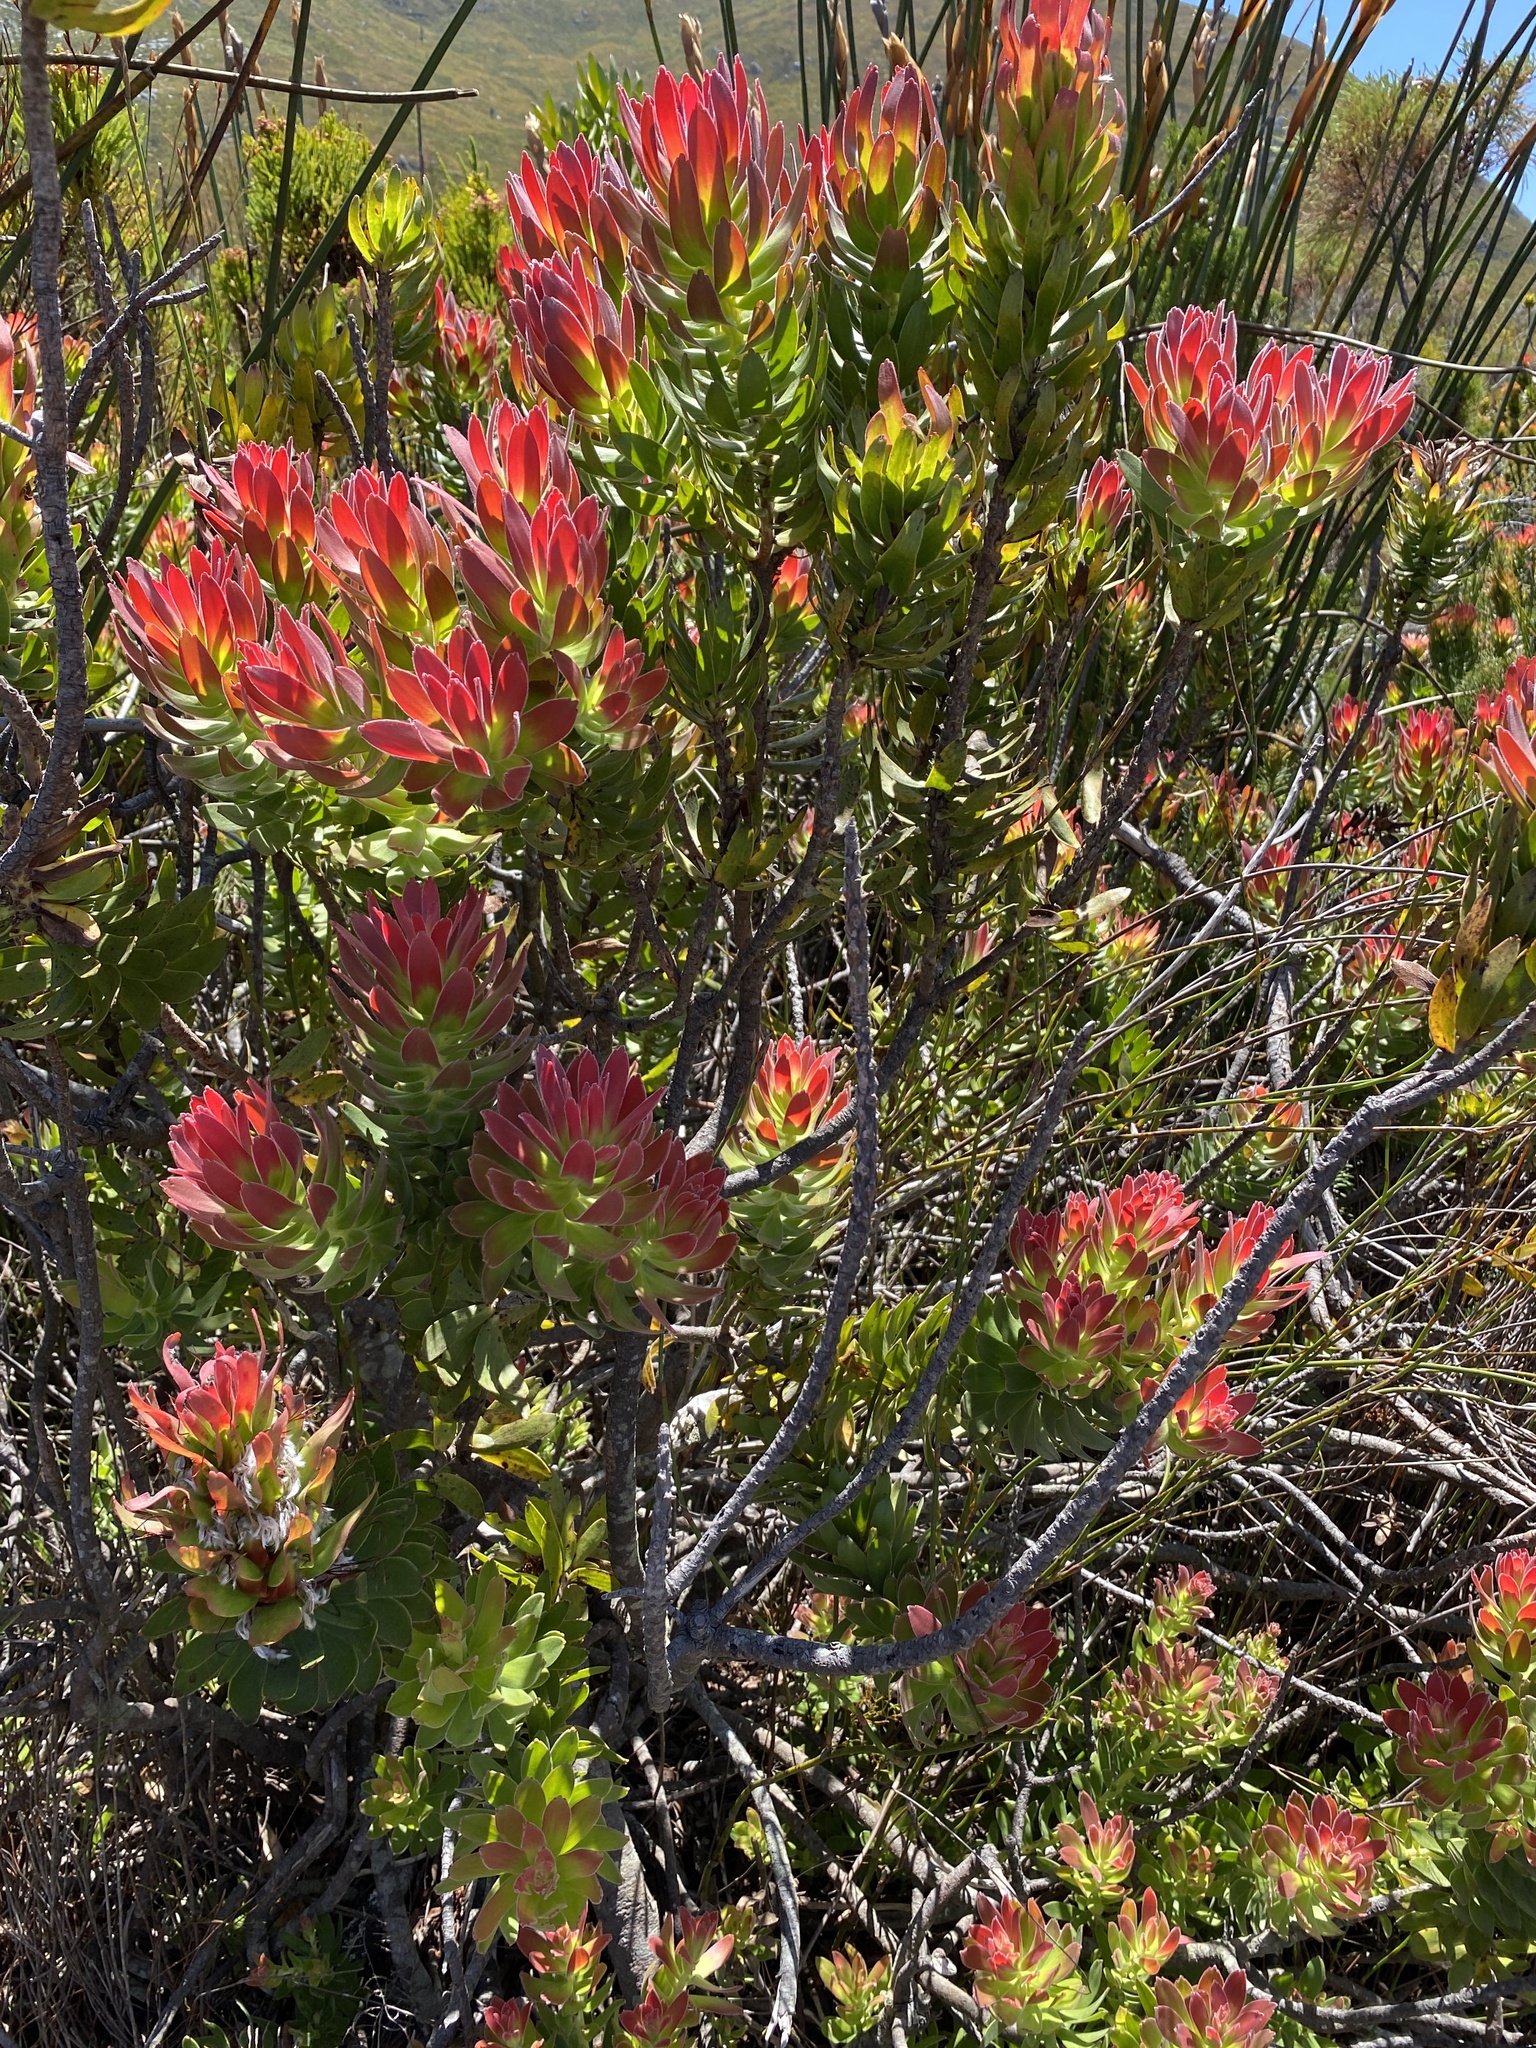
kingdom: Plantae
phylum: Tracheophyta
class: Magnoliopsida
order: Proteales
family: Proteaceae
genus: Mimetes
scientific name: Mimetes cucullatus
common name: Common pagoda
